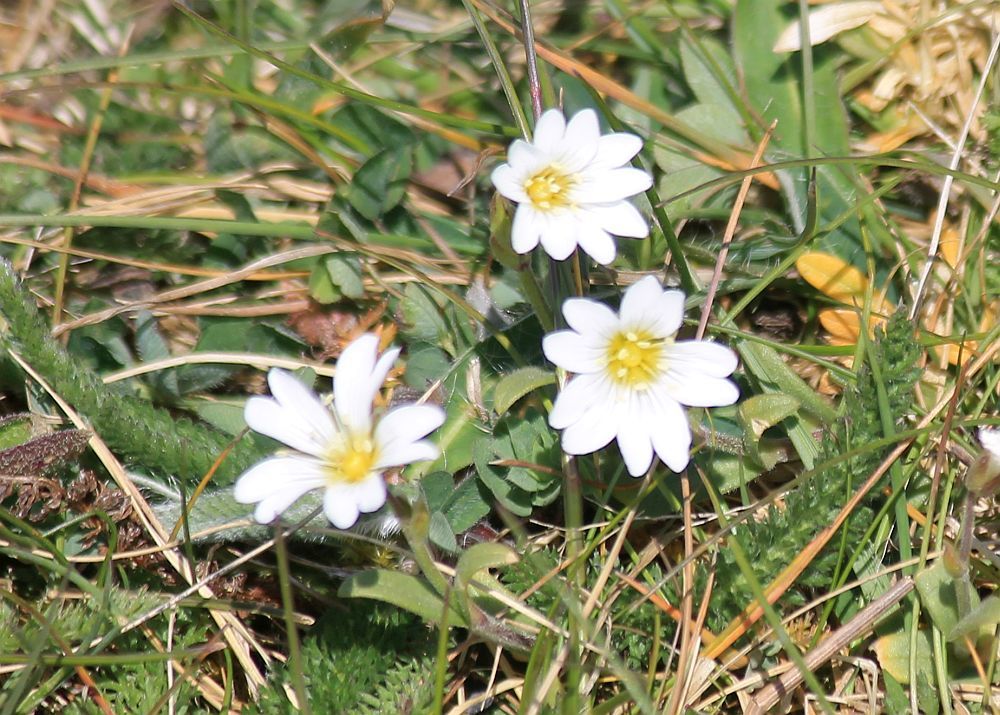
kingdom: Plantae
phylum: Tracheophyta
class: Magnoliopsida
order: Caryophyllales
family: Caryophyllaceae
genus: Cerastium
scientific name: Cerastium arvense
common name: Field mouse-ear
